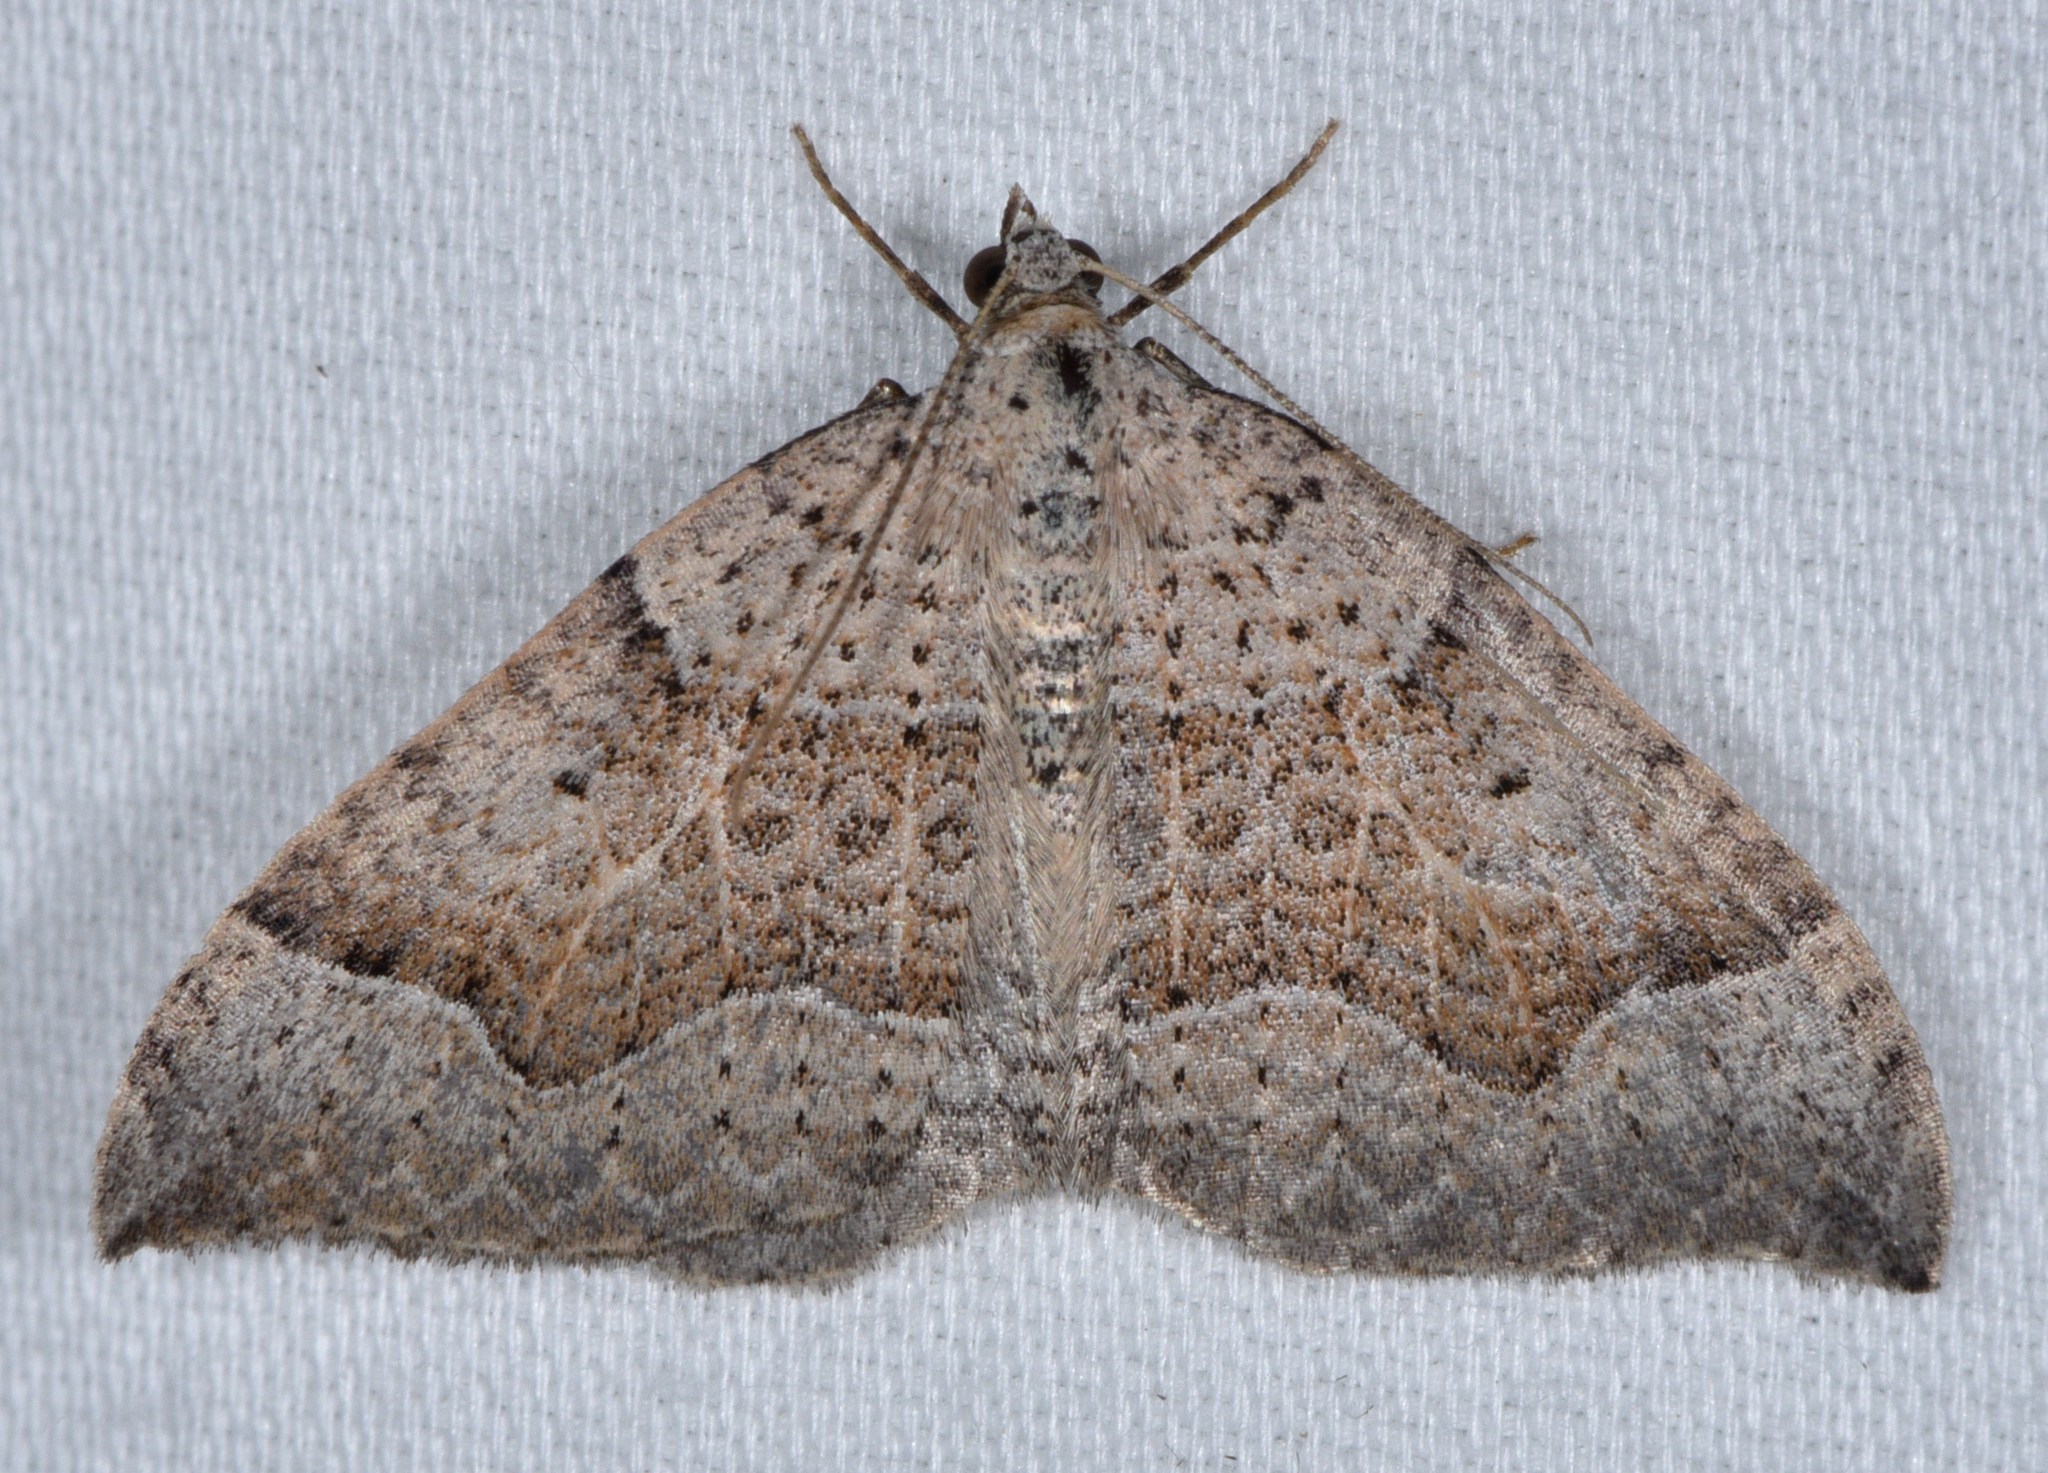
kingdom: Animalia
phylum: Arthropoda
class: Insecta
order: Lepidoptera
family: Geometridae
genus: Zenophleps
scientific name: Zenophleps lignicolorata
